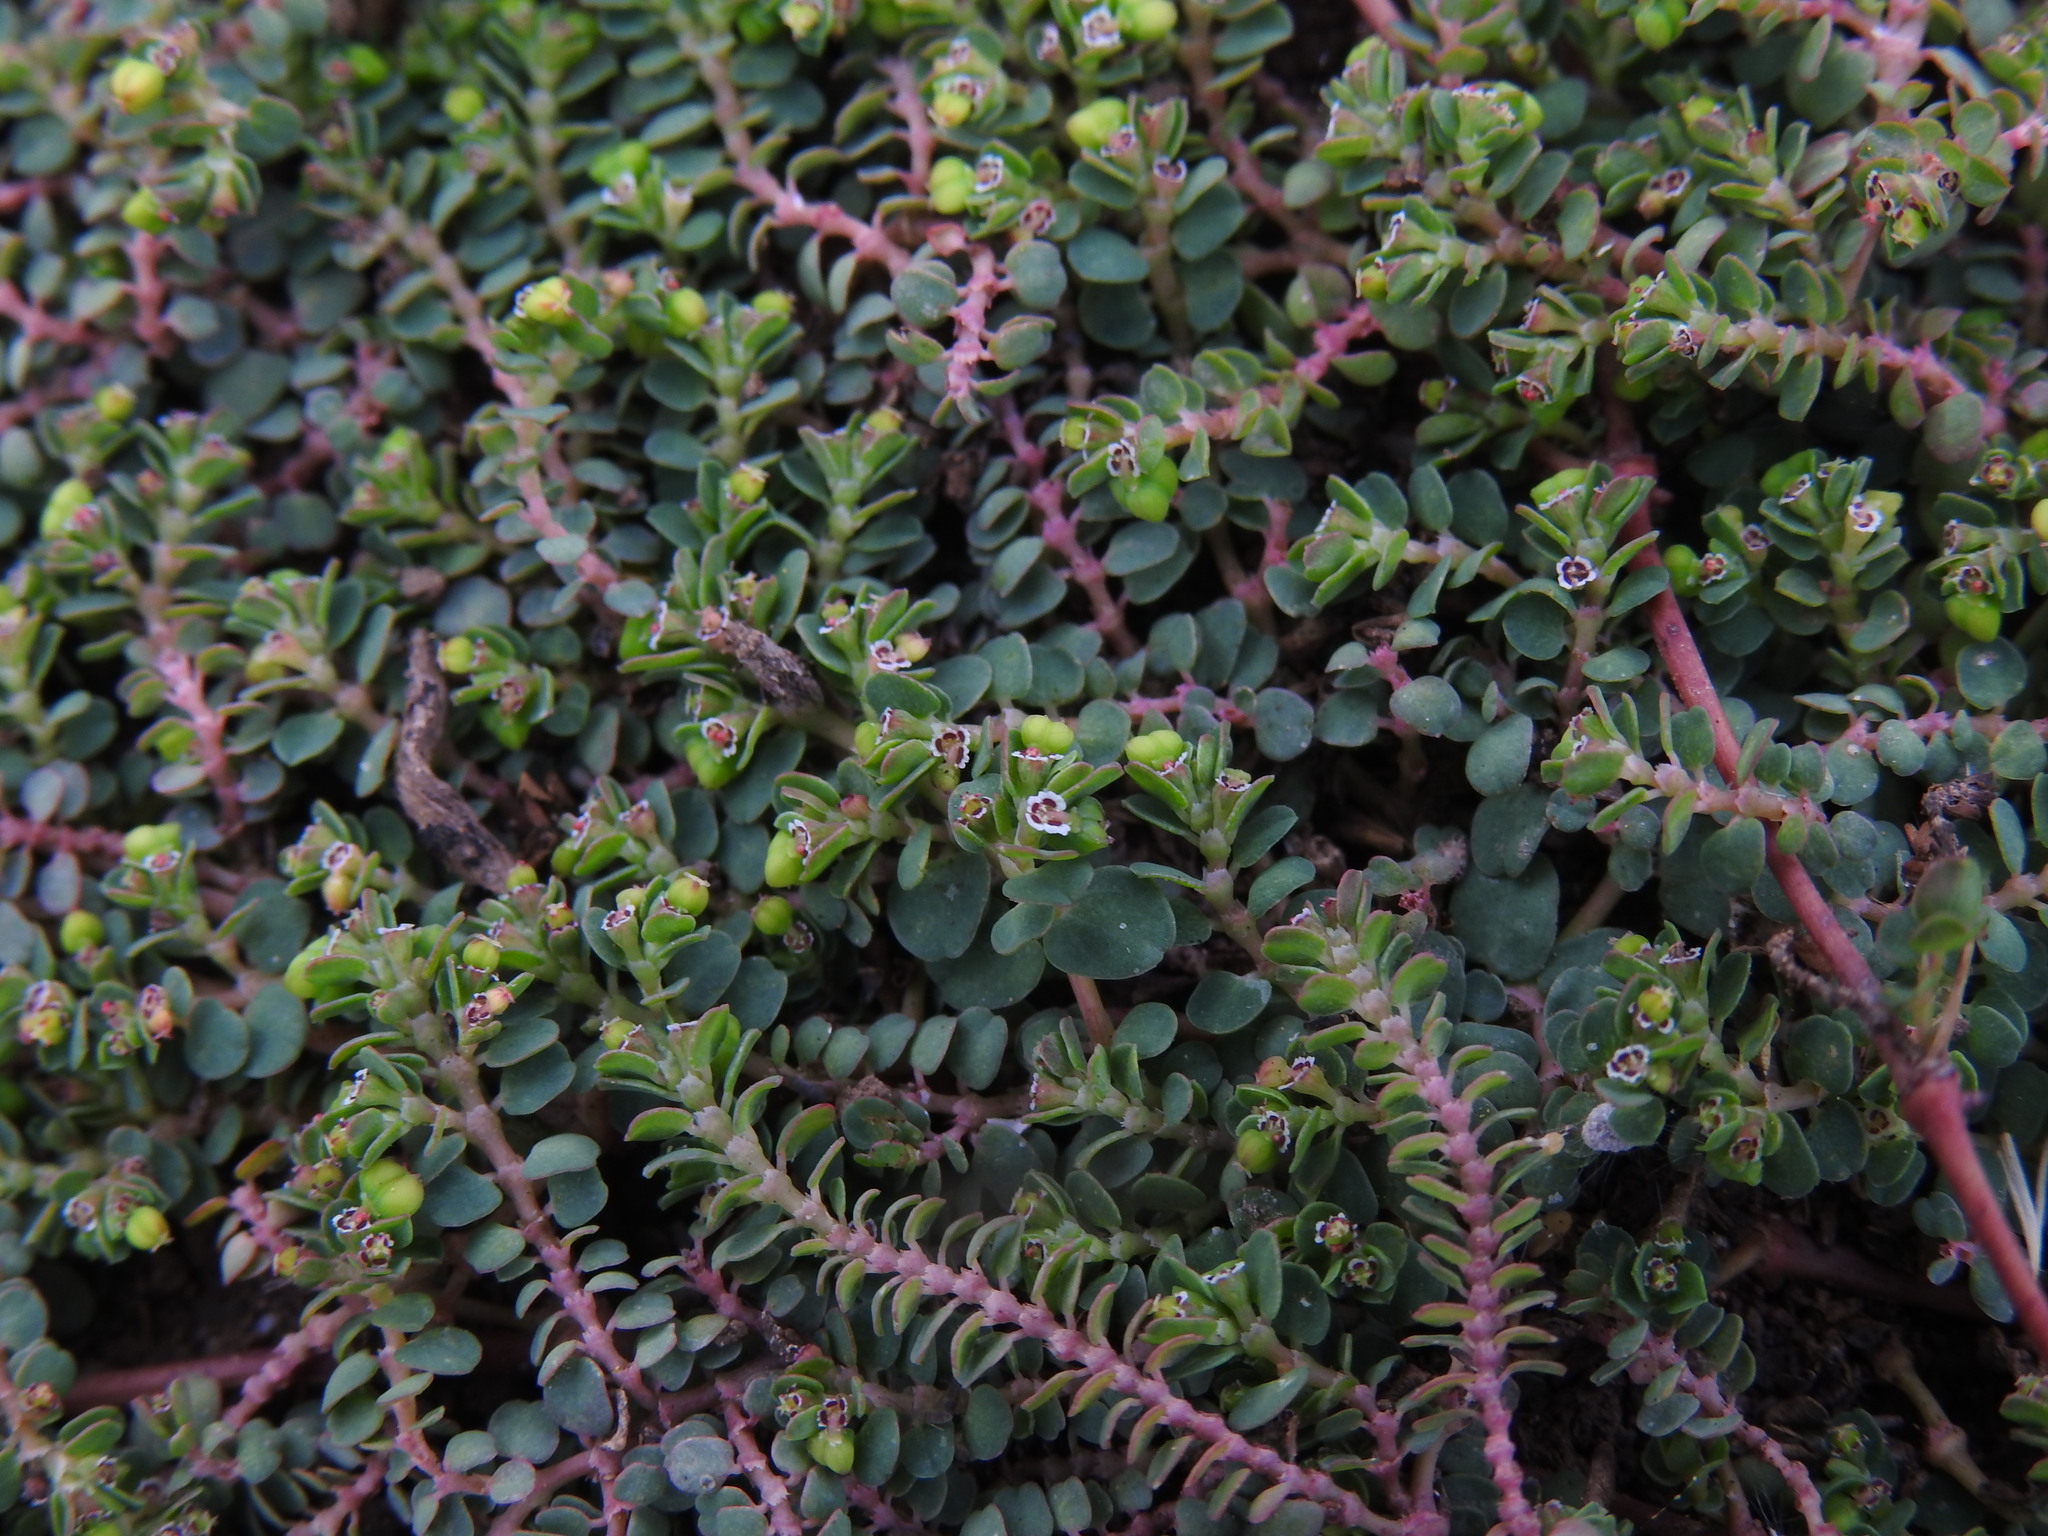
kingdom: Plantae
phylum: Tracheophyta
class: Magnoliopsida
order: Malpighiales
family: Euphorbiaceae
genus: Euphorbia
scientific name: Euphorbia serpens
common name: Matted sandmat
